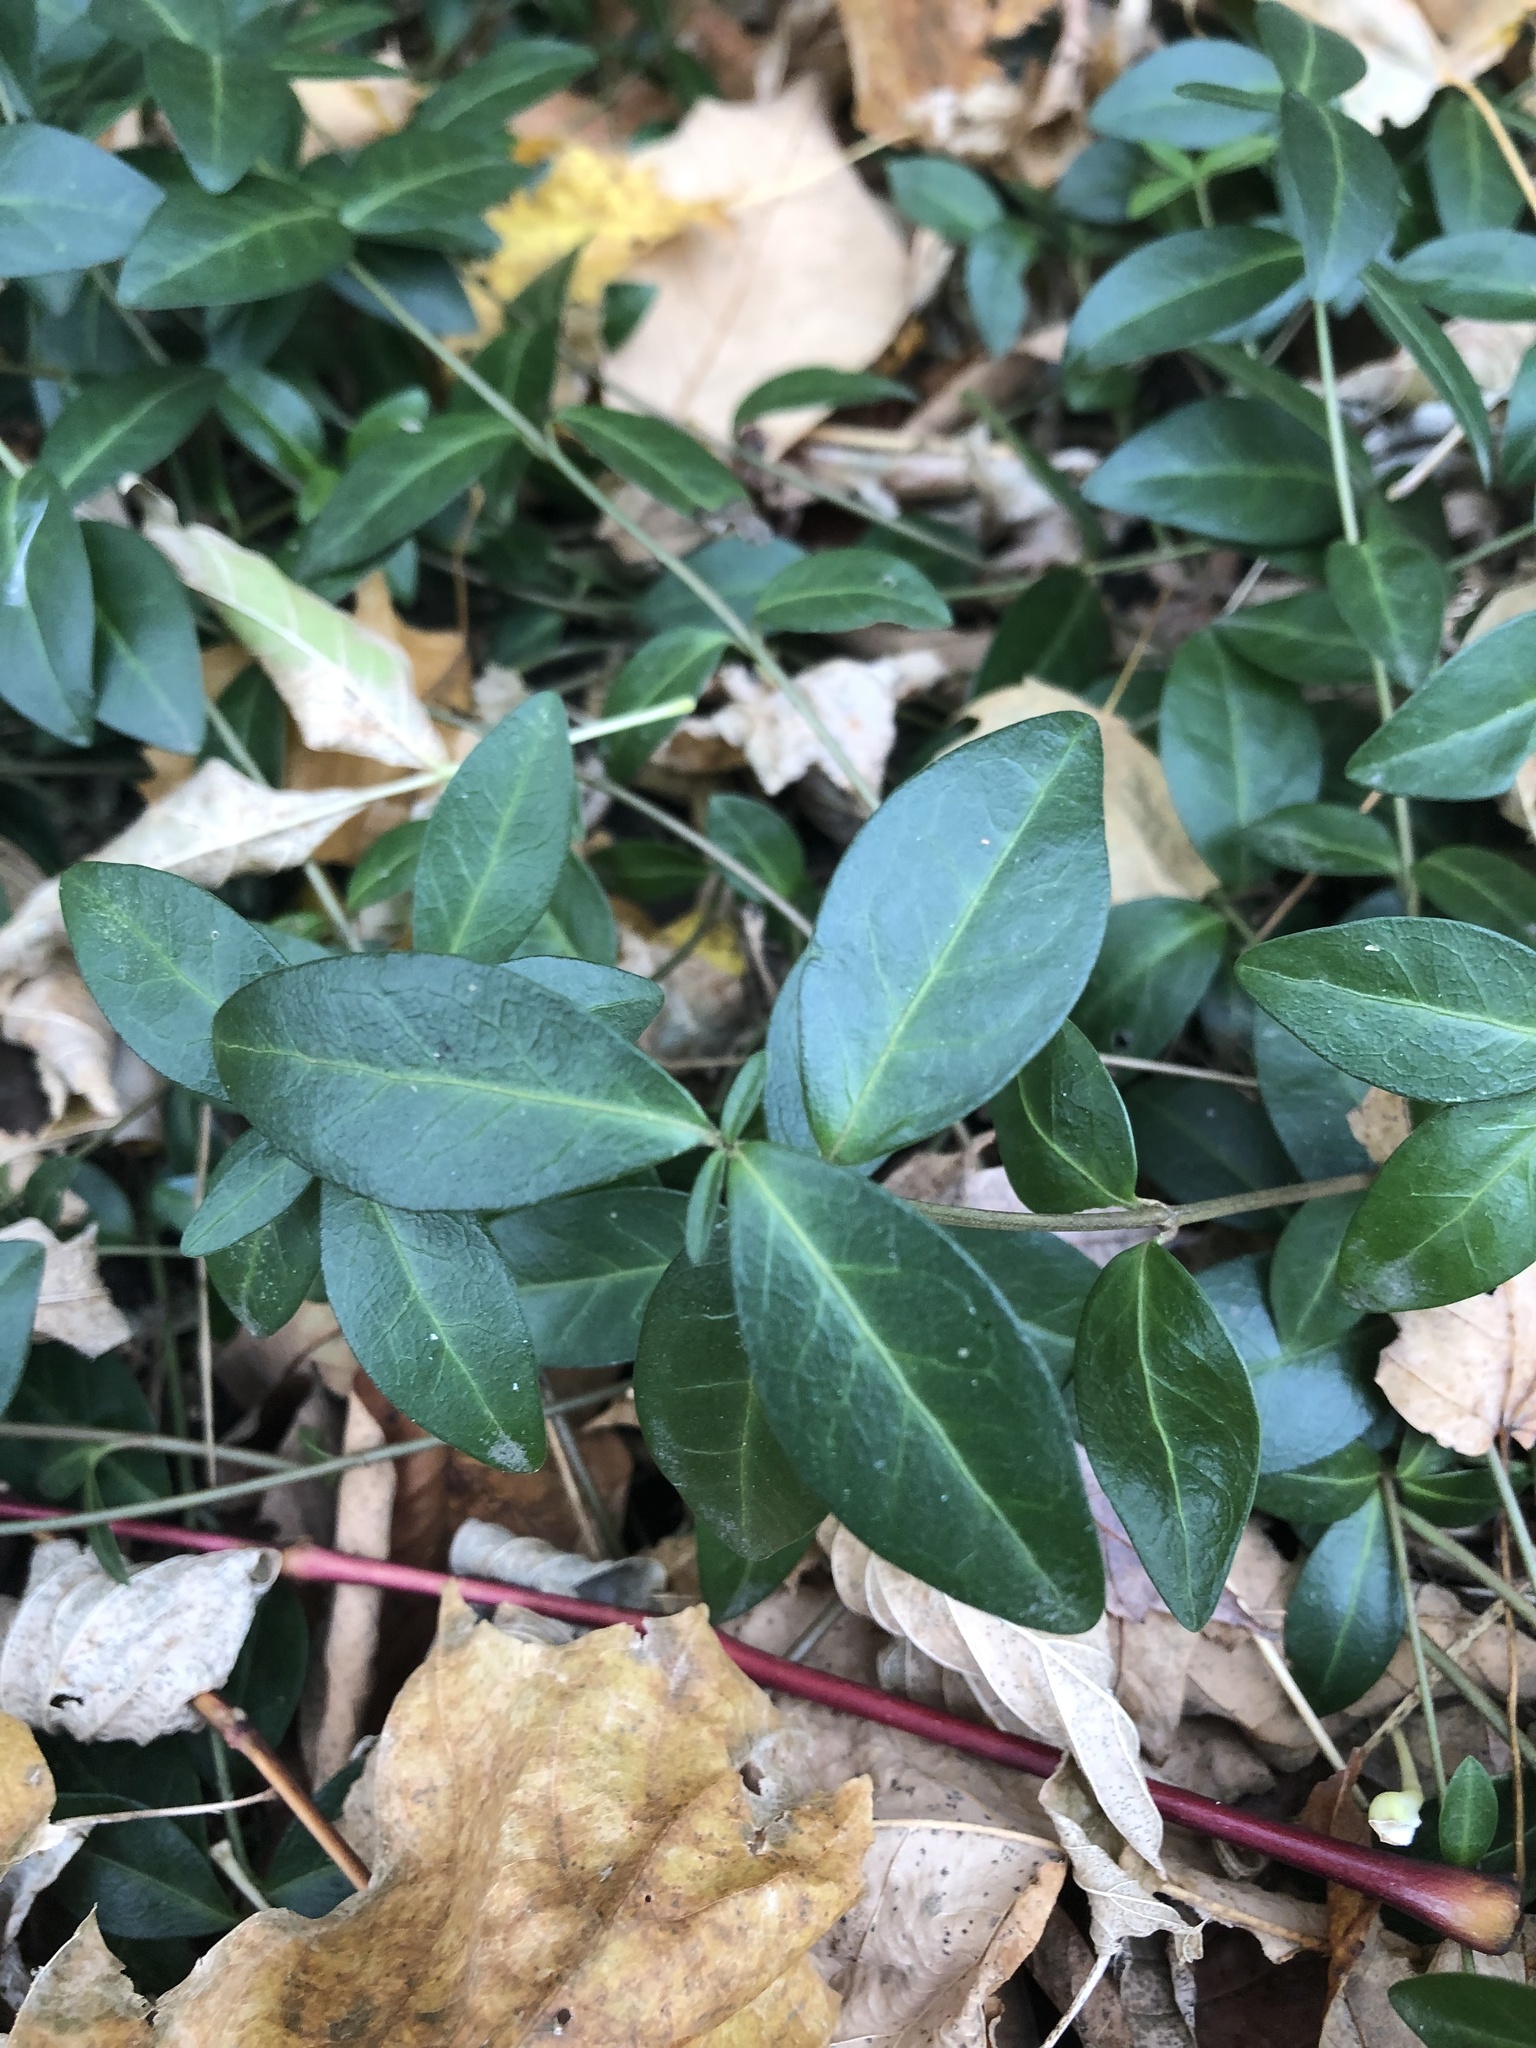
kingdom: Plantae
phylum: Tracheophyta
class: Magnoliopsida
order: Gentianales
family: Apocynaceae
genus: Vinca
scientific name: Vinca minor
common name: Lesser periwinkle
